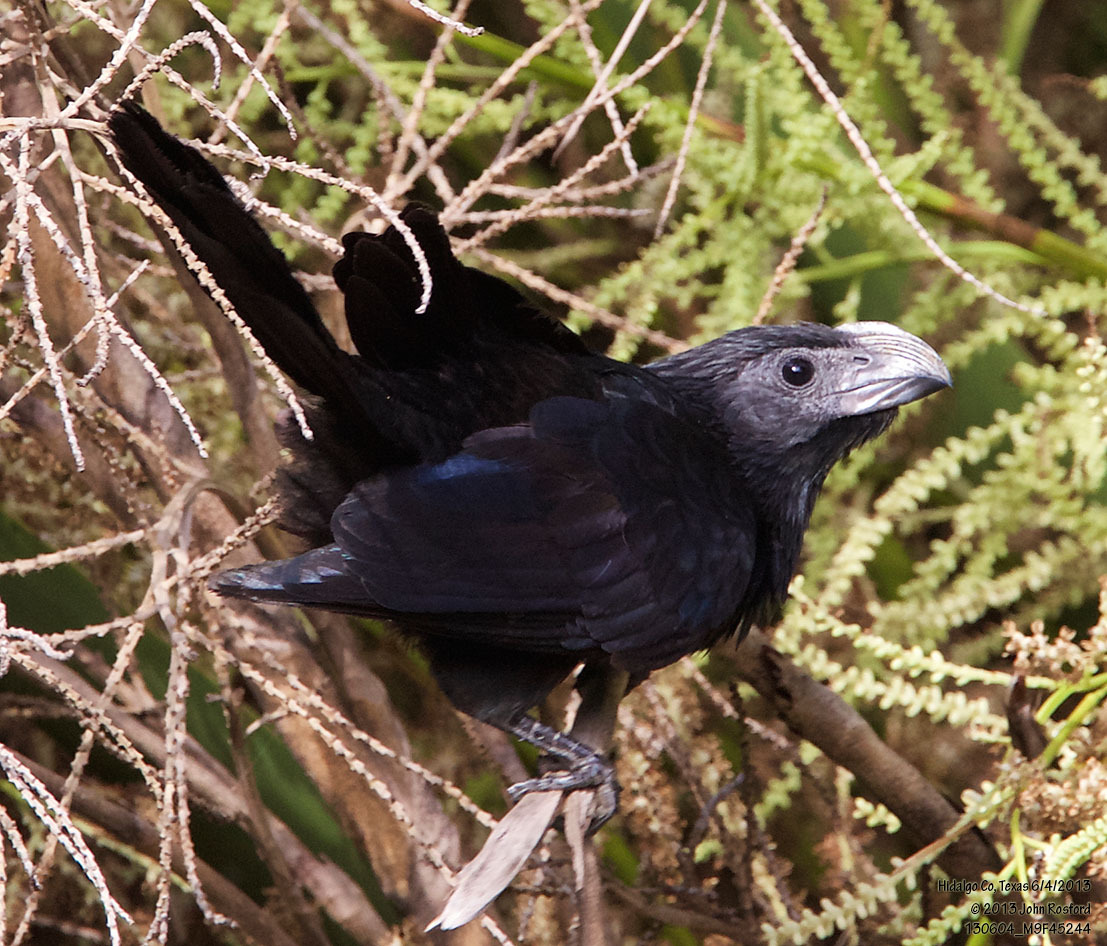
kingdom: Animalia
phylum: Chordata
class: Aves
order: Cuculiformes
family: Cuculidae
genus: Crotophaga
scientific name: Crotophaga sulcirostris
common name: Groove-billed ani
